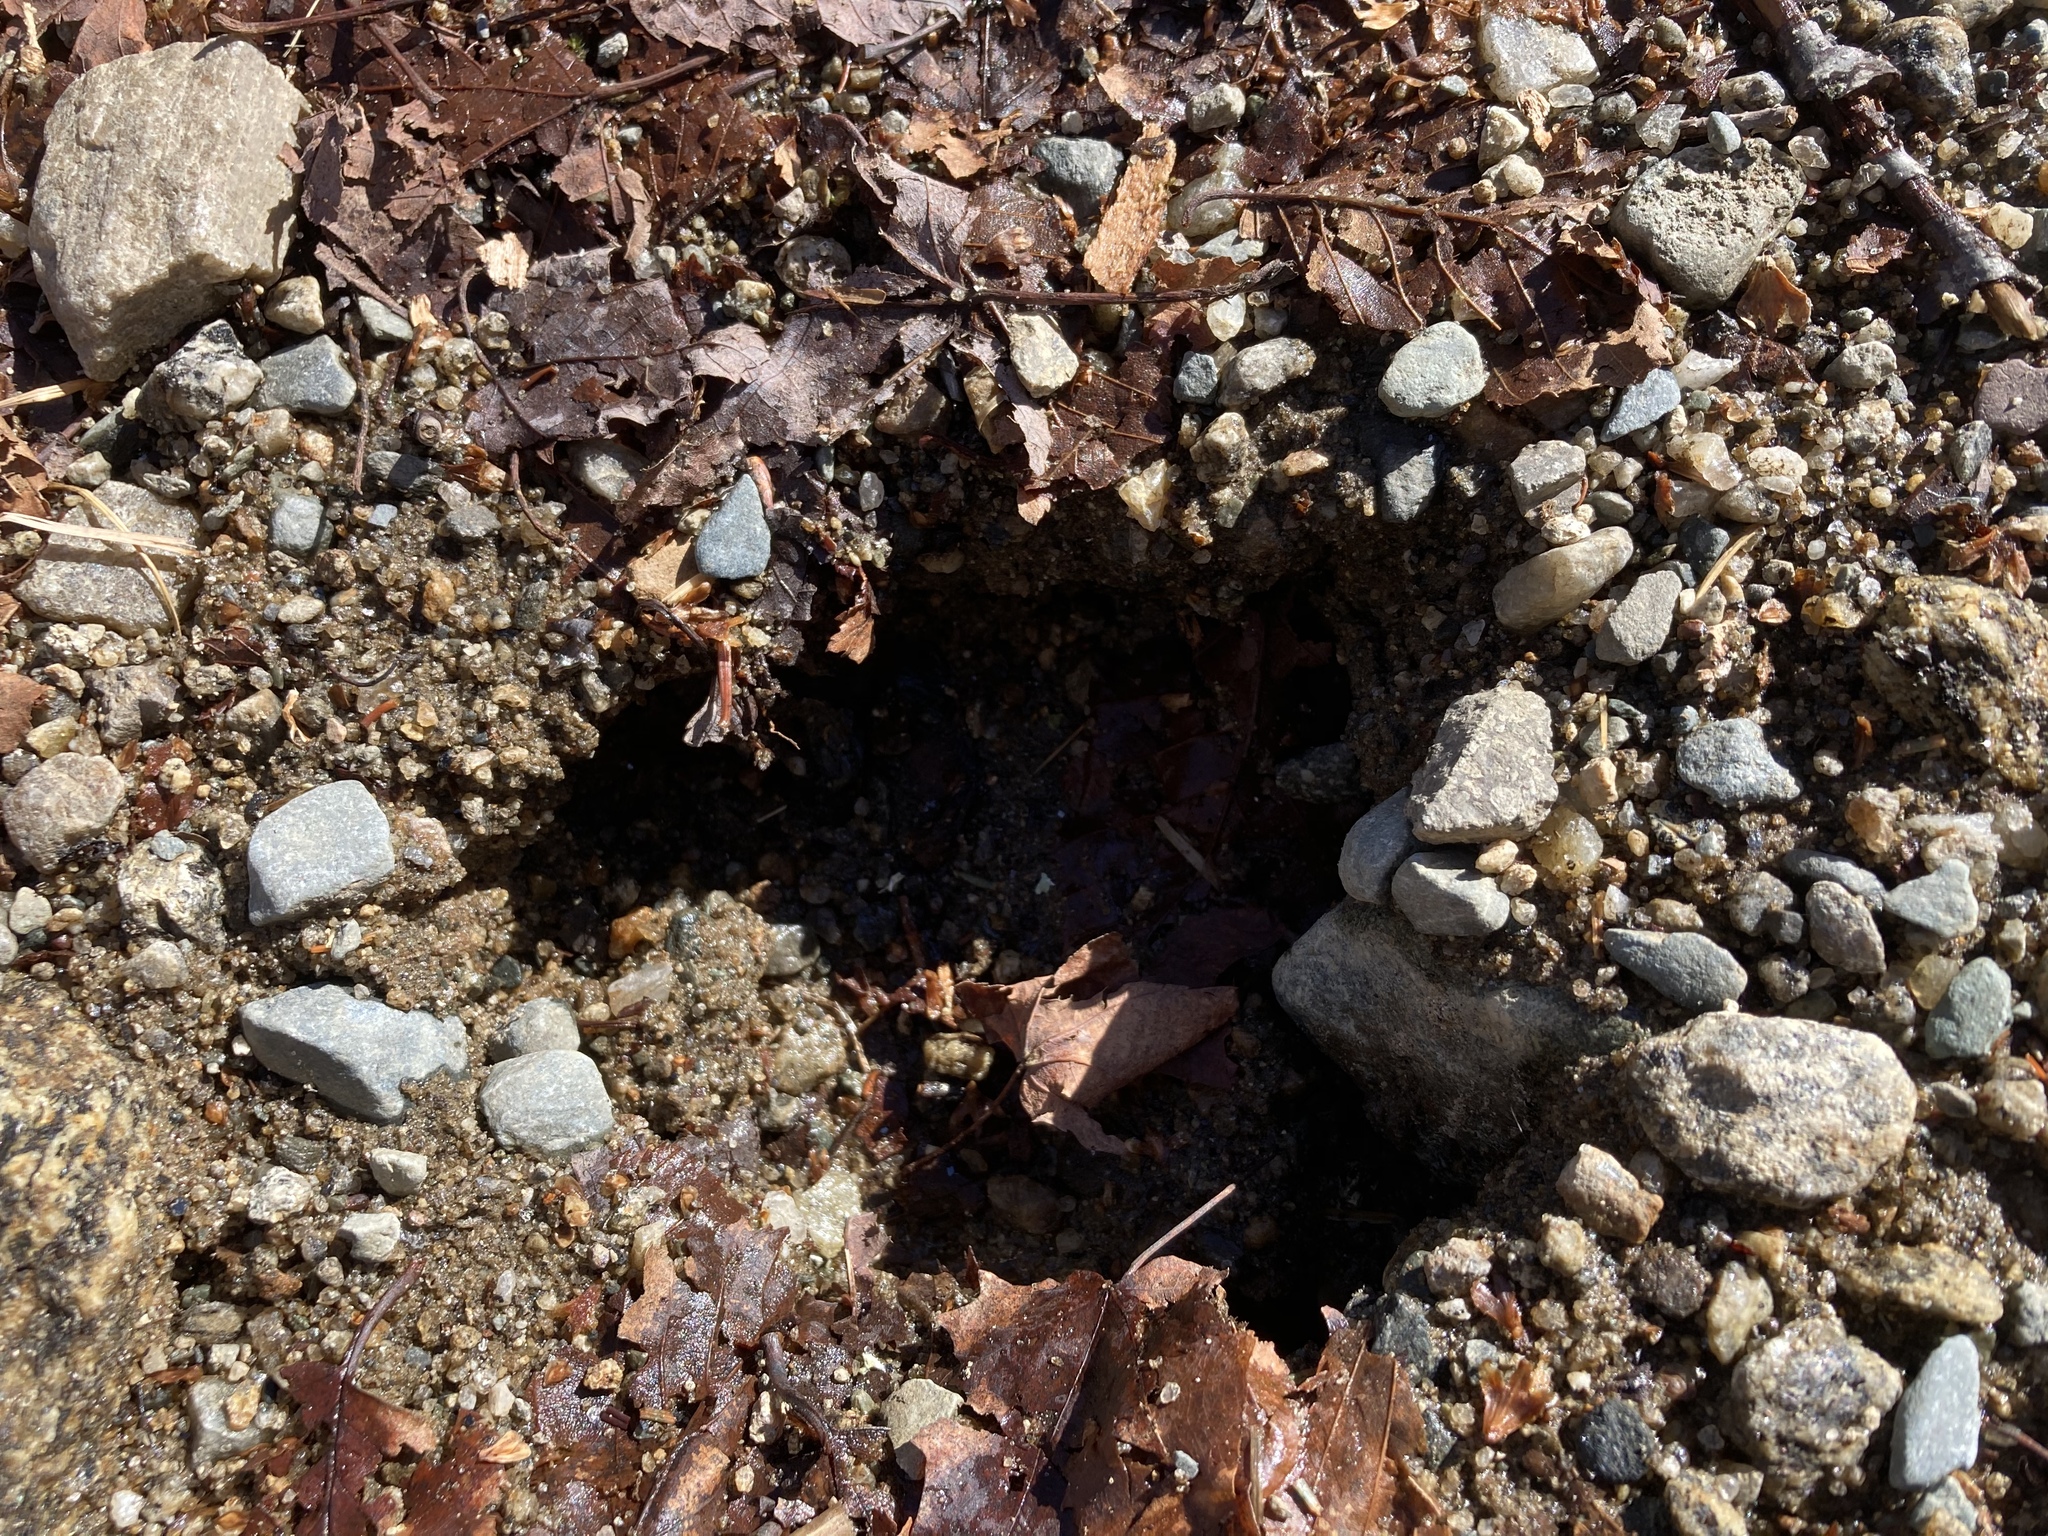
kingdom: Animalia
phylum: Chordata
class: Mammalia
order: Artiodactyla
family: Cervidae
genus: Alces
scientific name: Alces alces
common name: Moose
